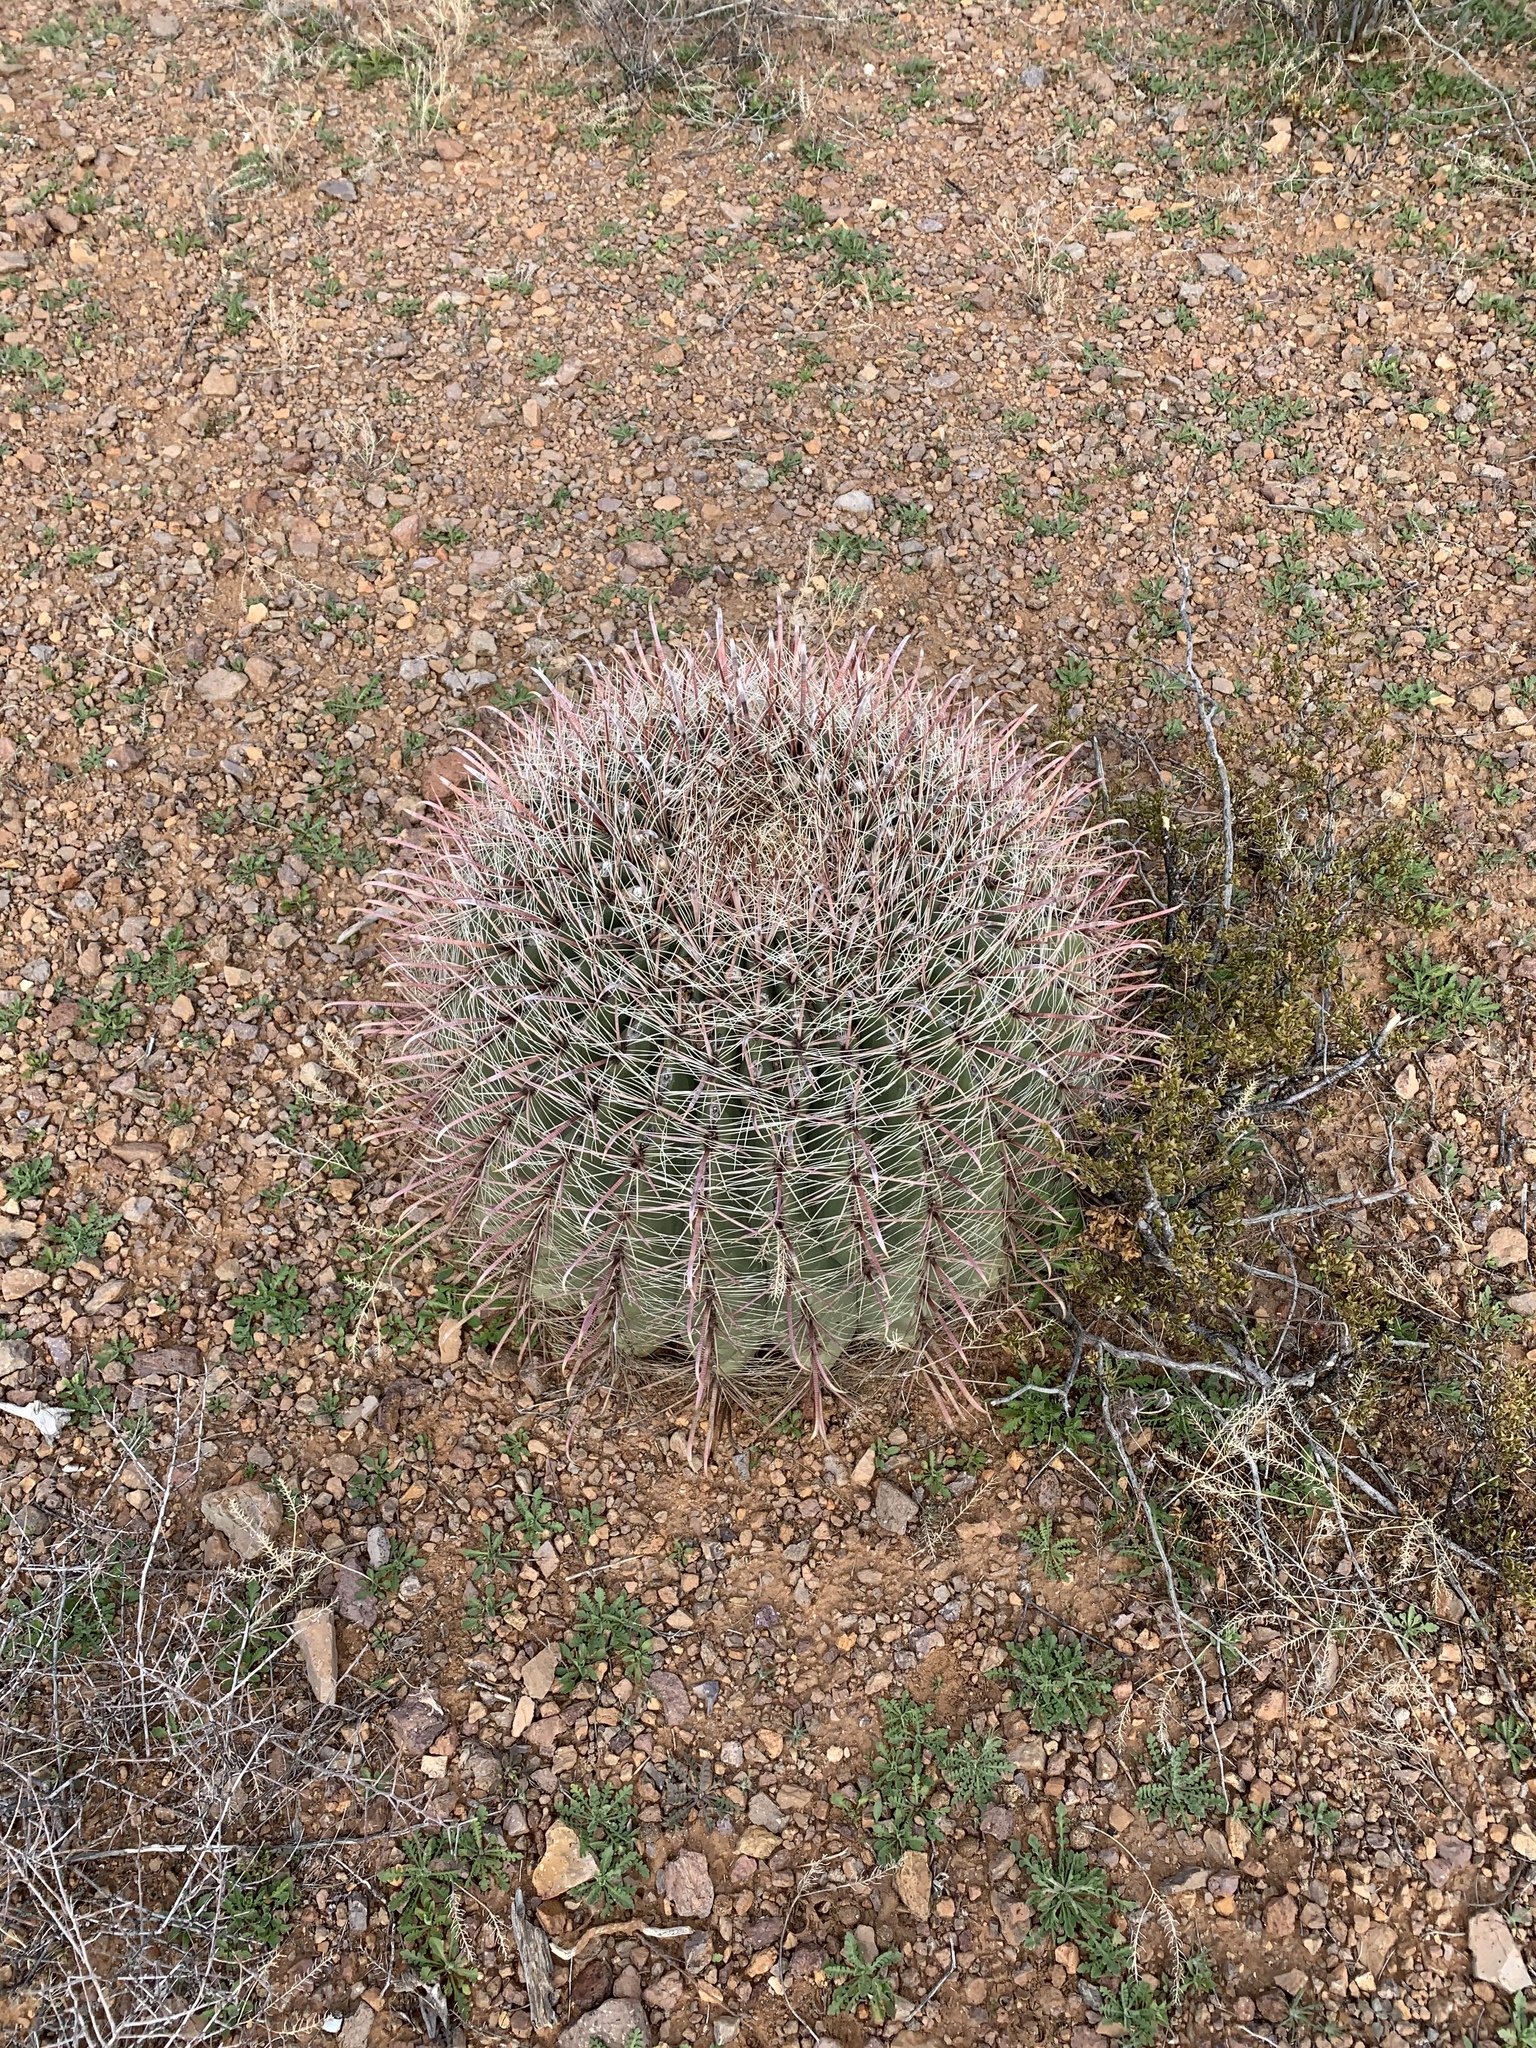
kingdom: Plantae
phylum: Tracheophyta
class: Magnoliopsida
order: Caryophyllales
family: Cactaceae
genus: Ferocactus
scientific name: Ferocactus wislizeni
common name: Candy barrel cactus
